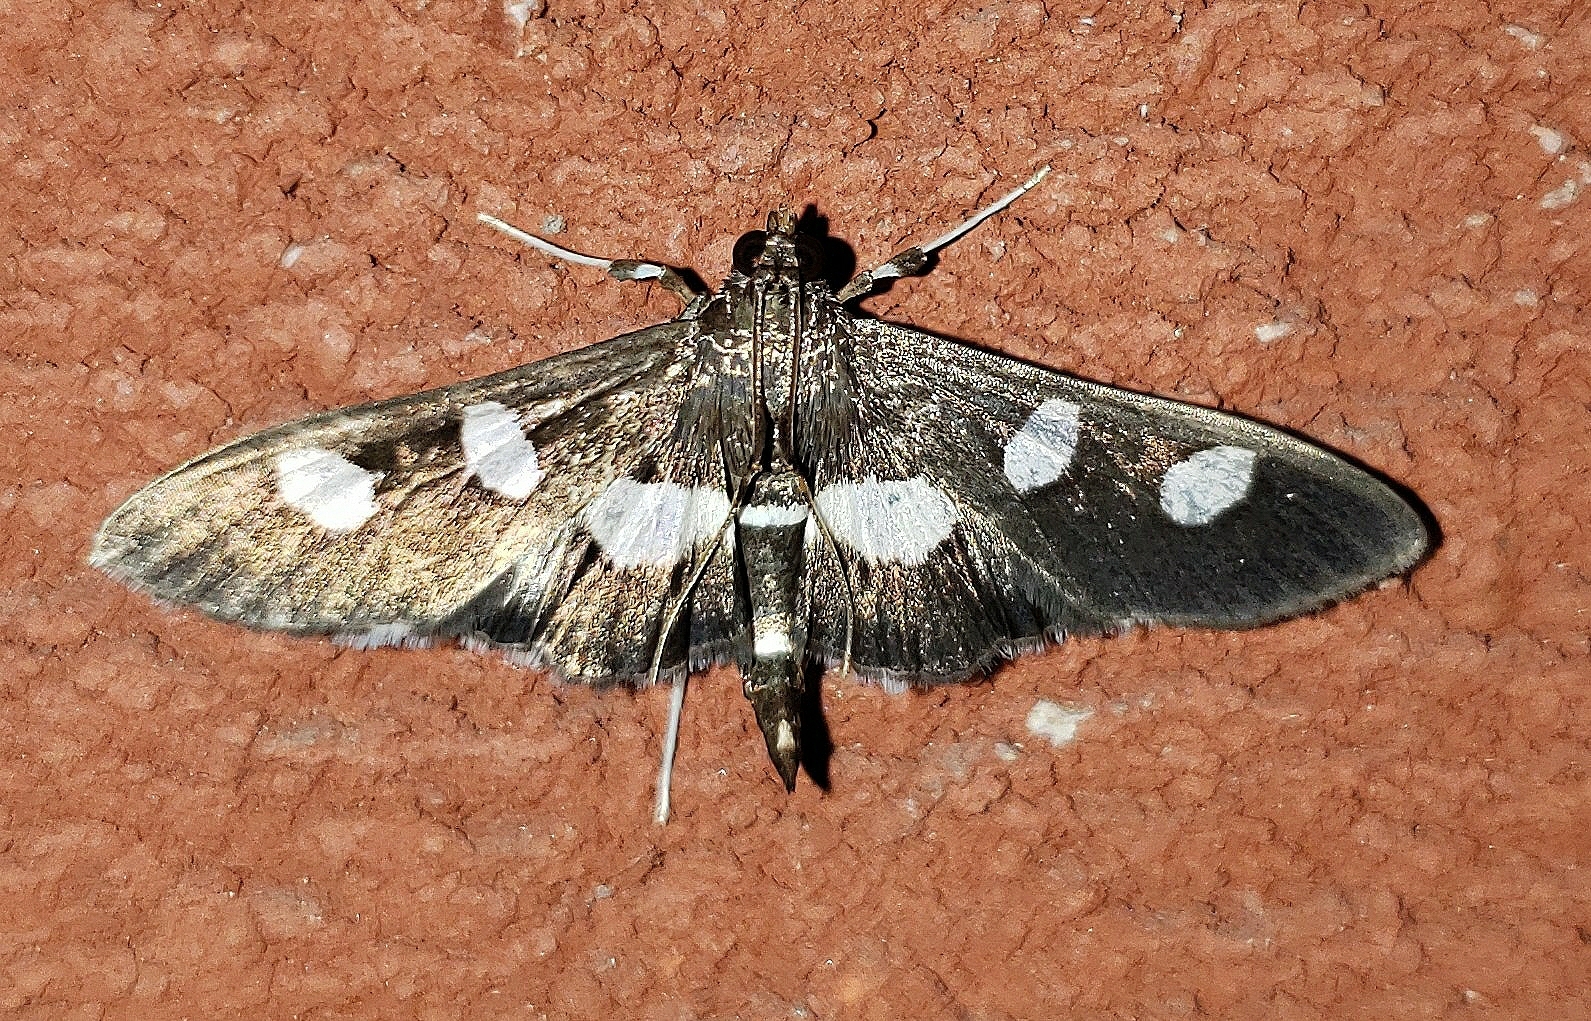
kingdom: Animalia
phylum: Arthropoda
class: Insecta
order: Lepidoptera
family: Crambidae
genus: Desmia
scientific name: Desmia
